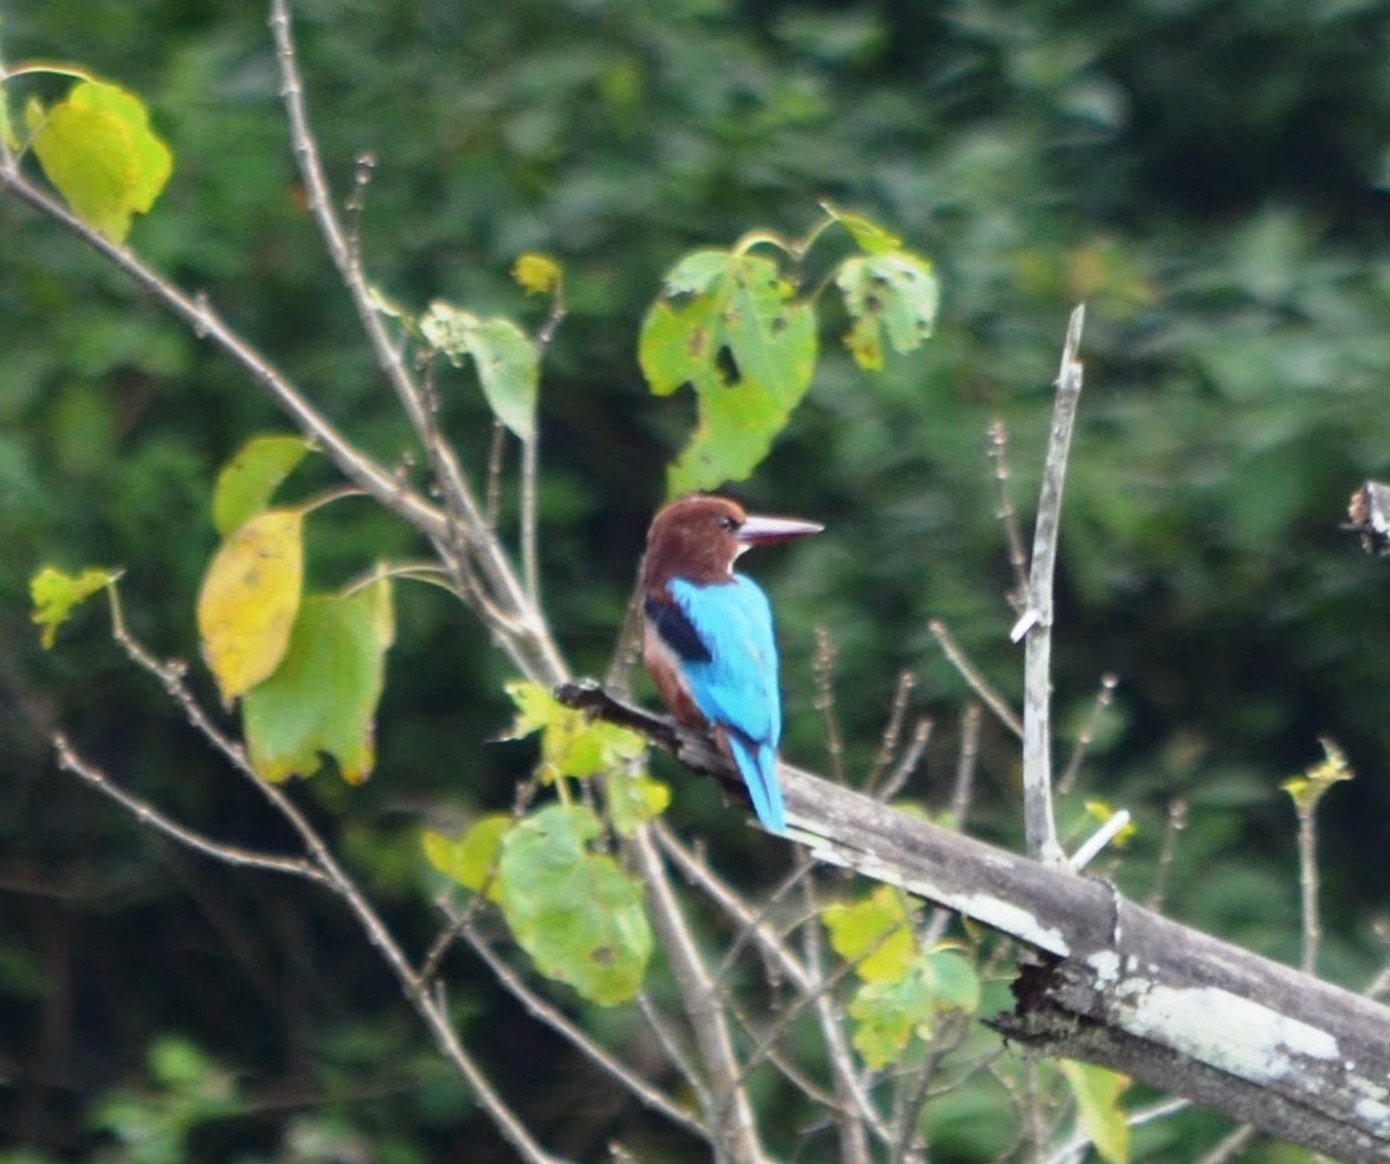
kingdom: Animalia
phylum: Chordata
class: Aves
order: Coraciiformes
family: Alcedinidae
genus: Halcyon
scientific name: Halcyon smyrnensis
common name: White-throated kingfisher
